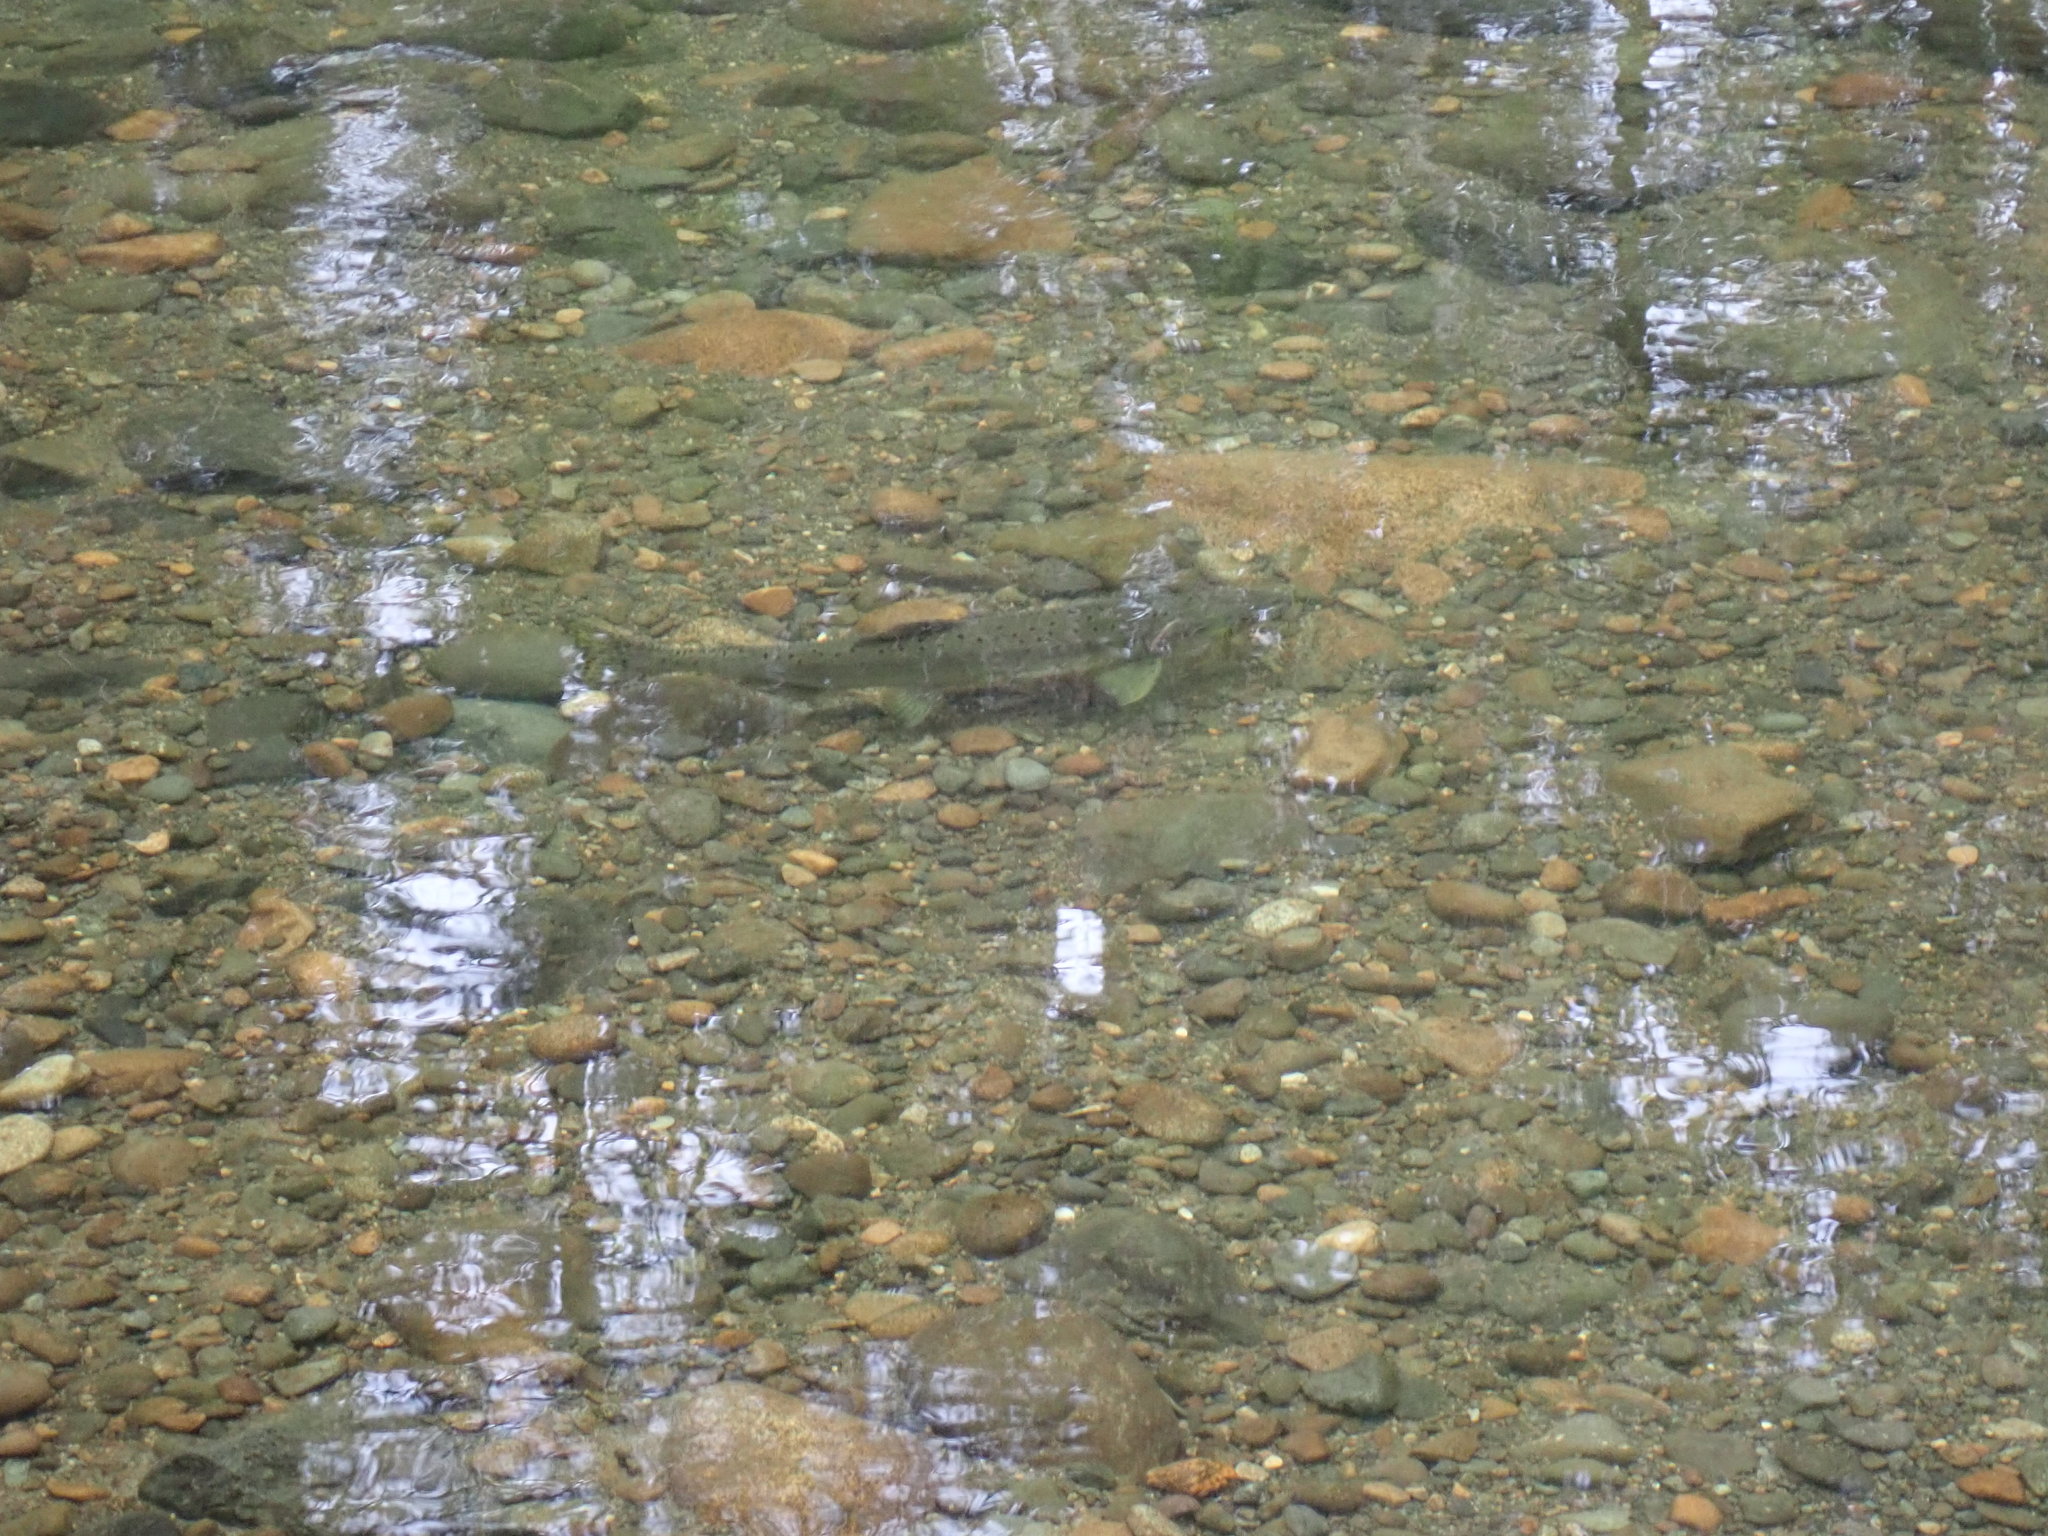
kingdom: Animalia
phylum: Chordata
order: Salmoniformes
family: Salmonidae
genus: Oncorhynchus
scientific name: Oncorhynchus gorbuscha
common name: Humpback salmon
